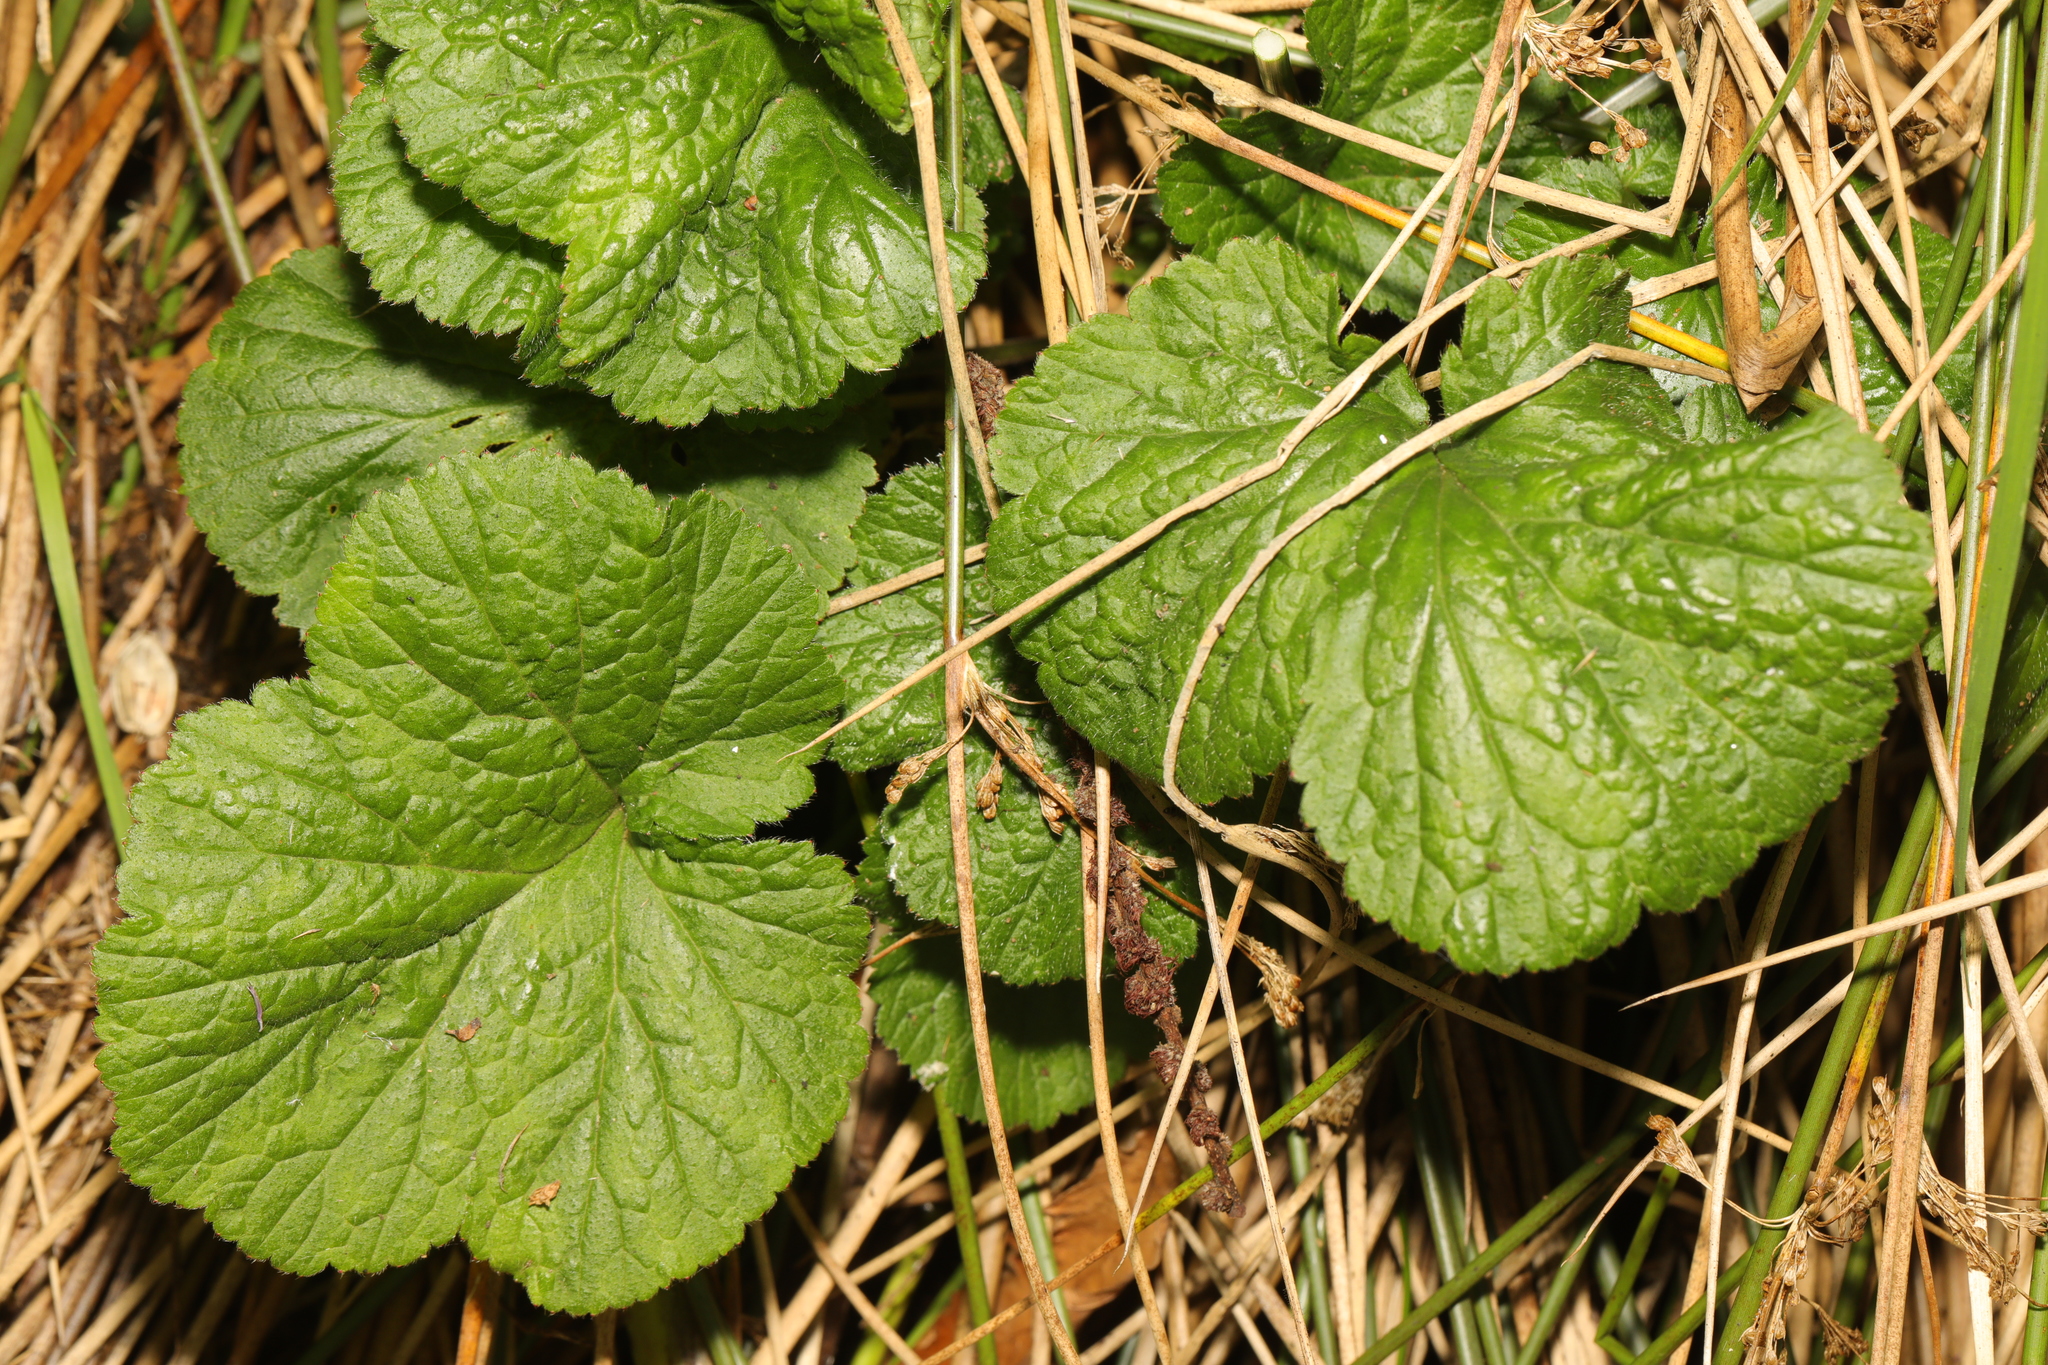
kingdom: Plantae
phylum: Tracheophyta
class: Magnoliopsida
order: Rosales
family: Rosaceae
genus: Geum
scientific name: Geum urbanum
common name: Wood avens
